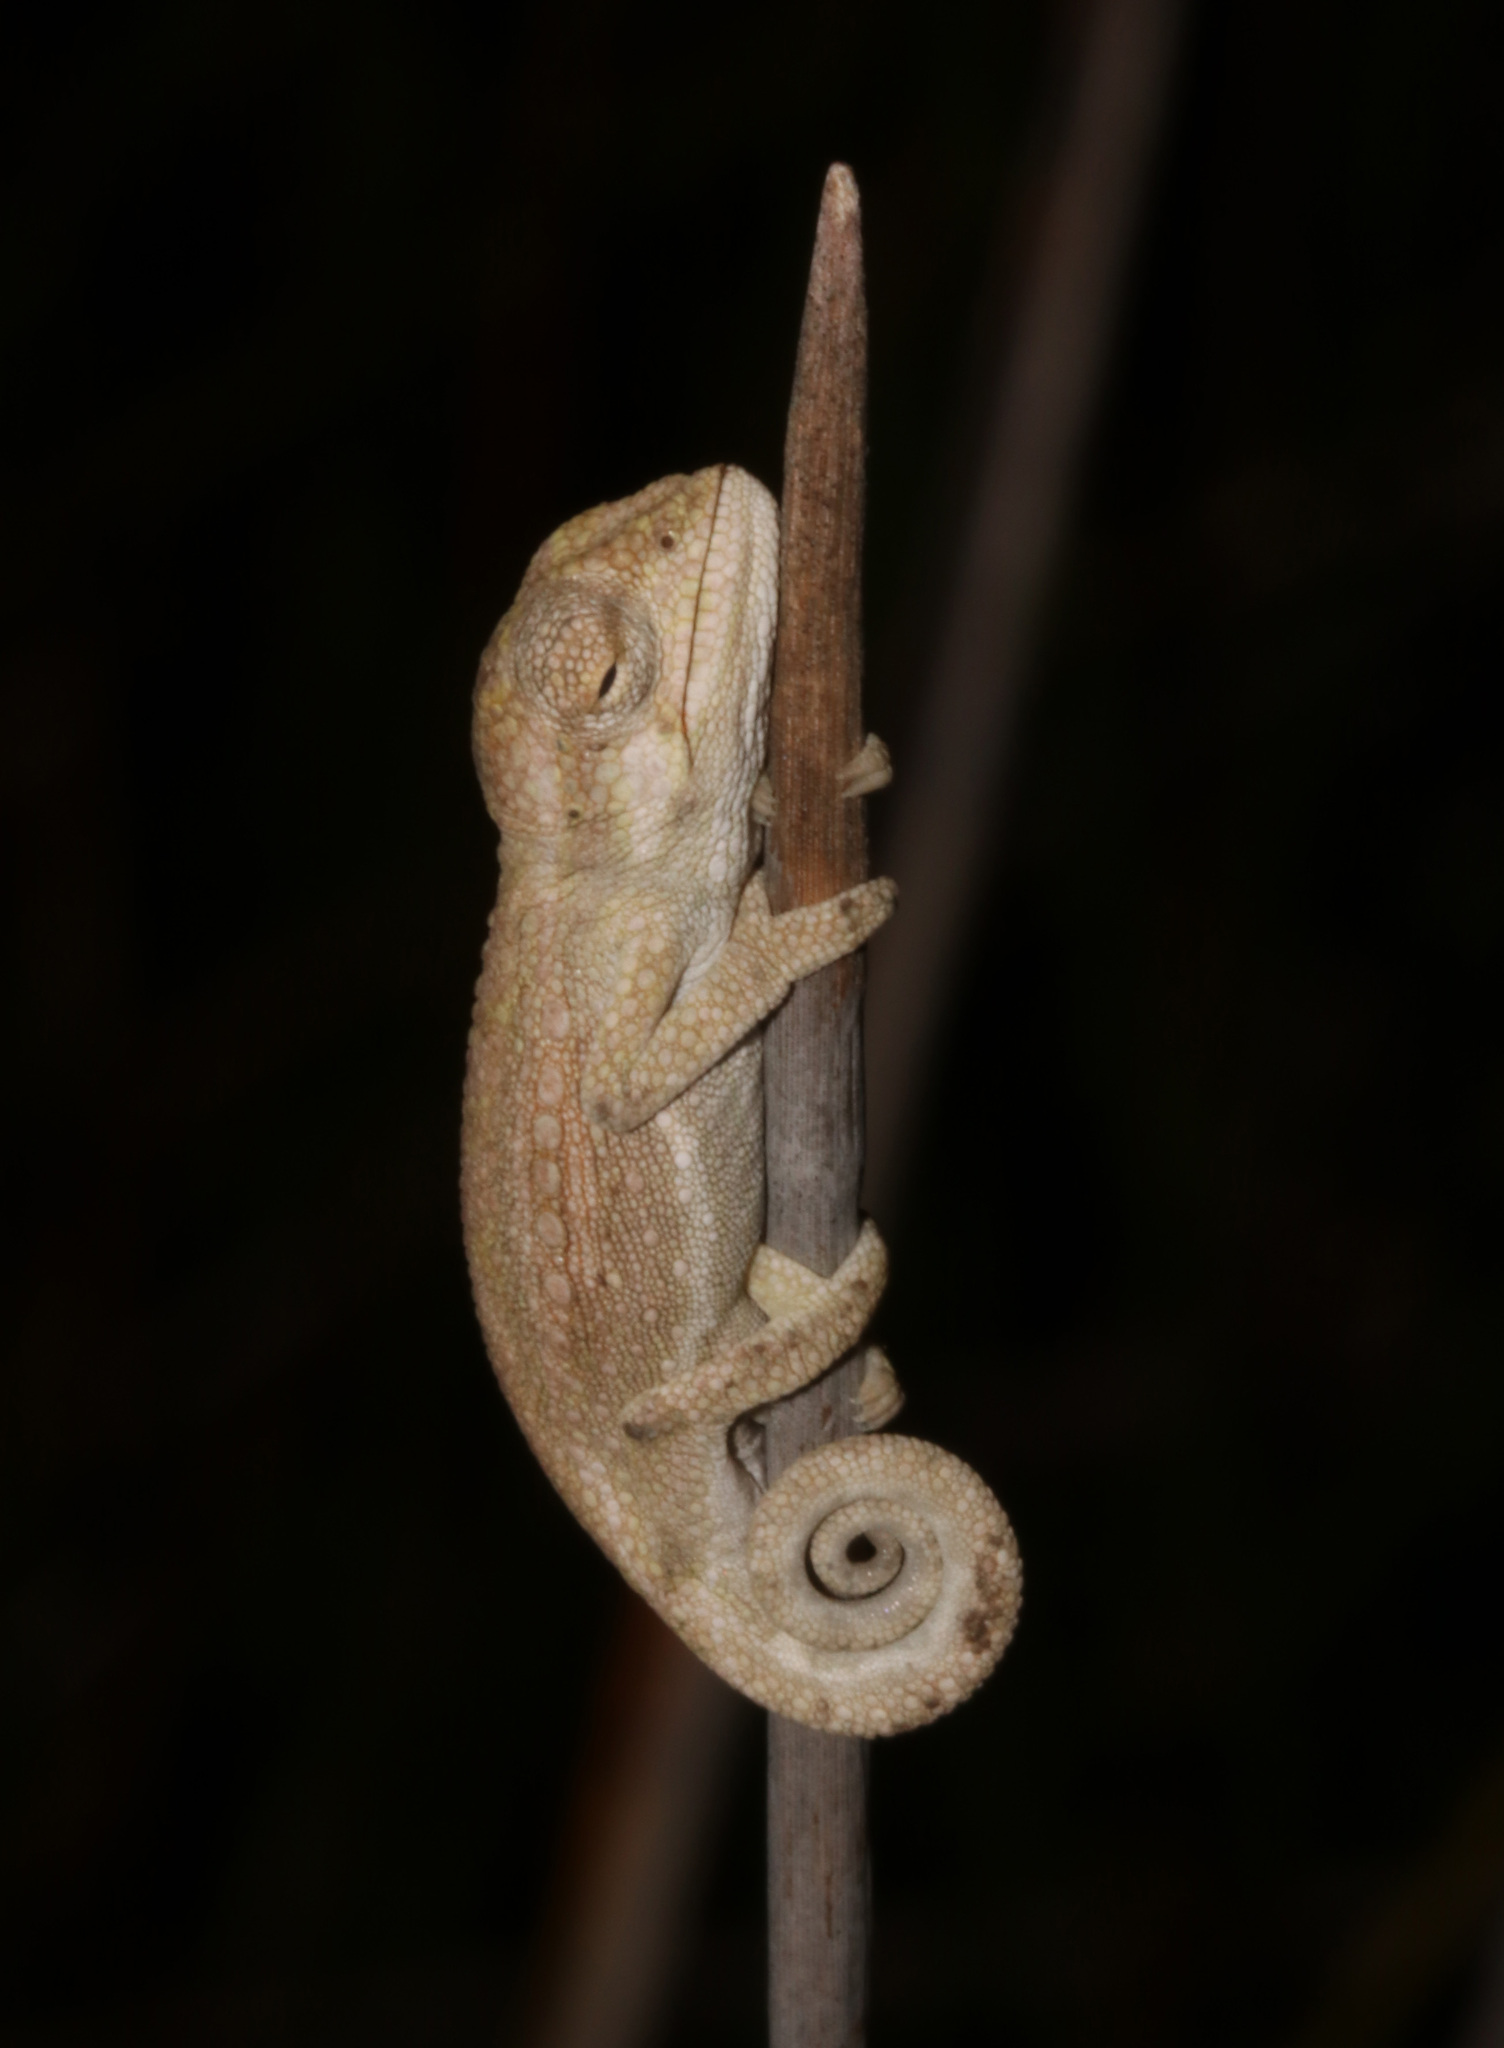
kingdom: Animalia
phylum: Chordata
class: Squamata
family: Chamaeleonidae
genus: Bradypodion
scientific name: Bradypodion pumilum
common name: Cape dwarf chameleon
